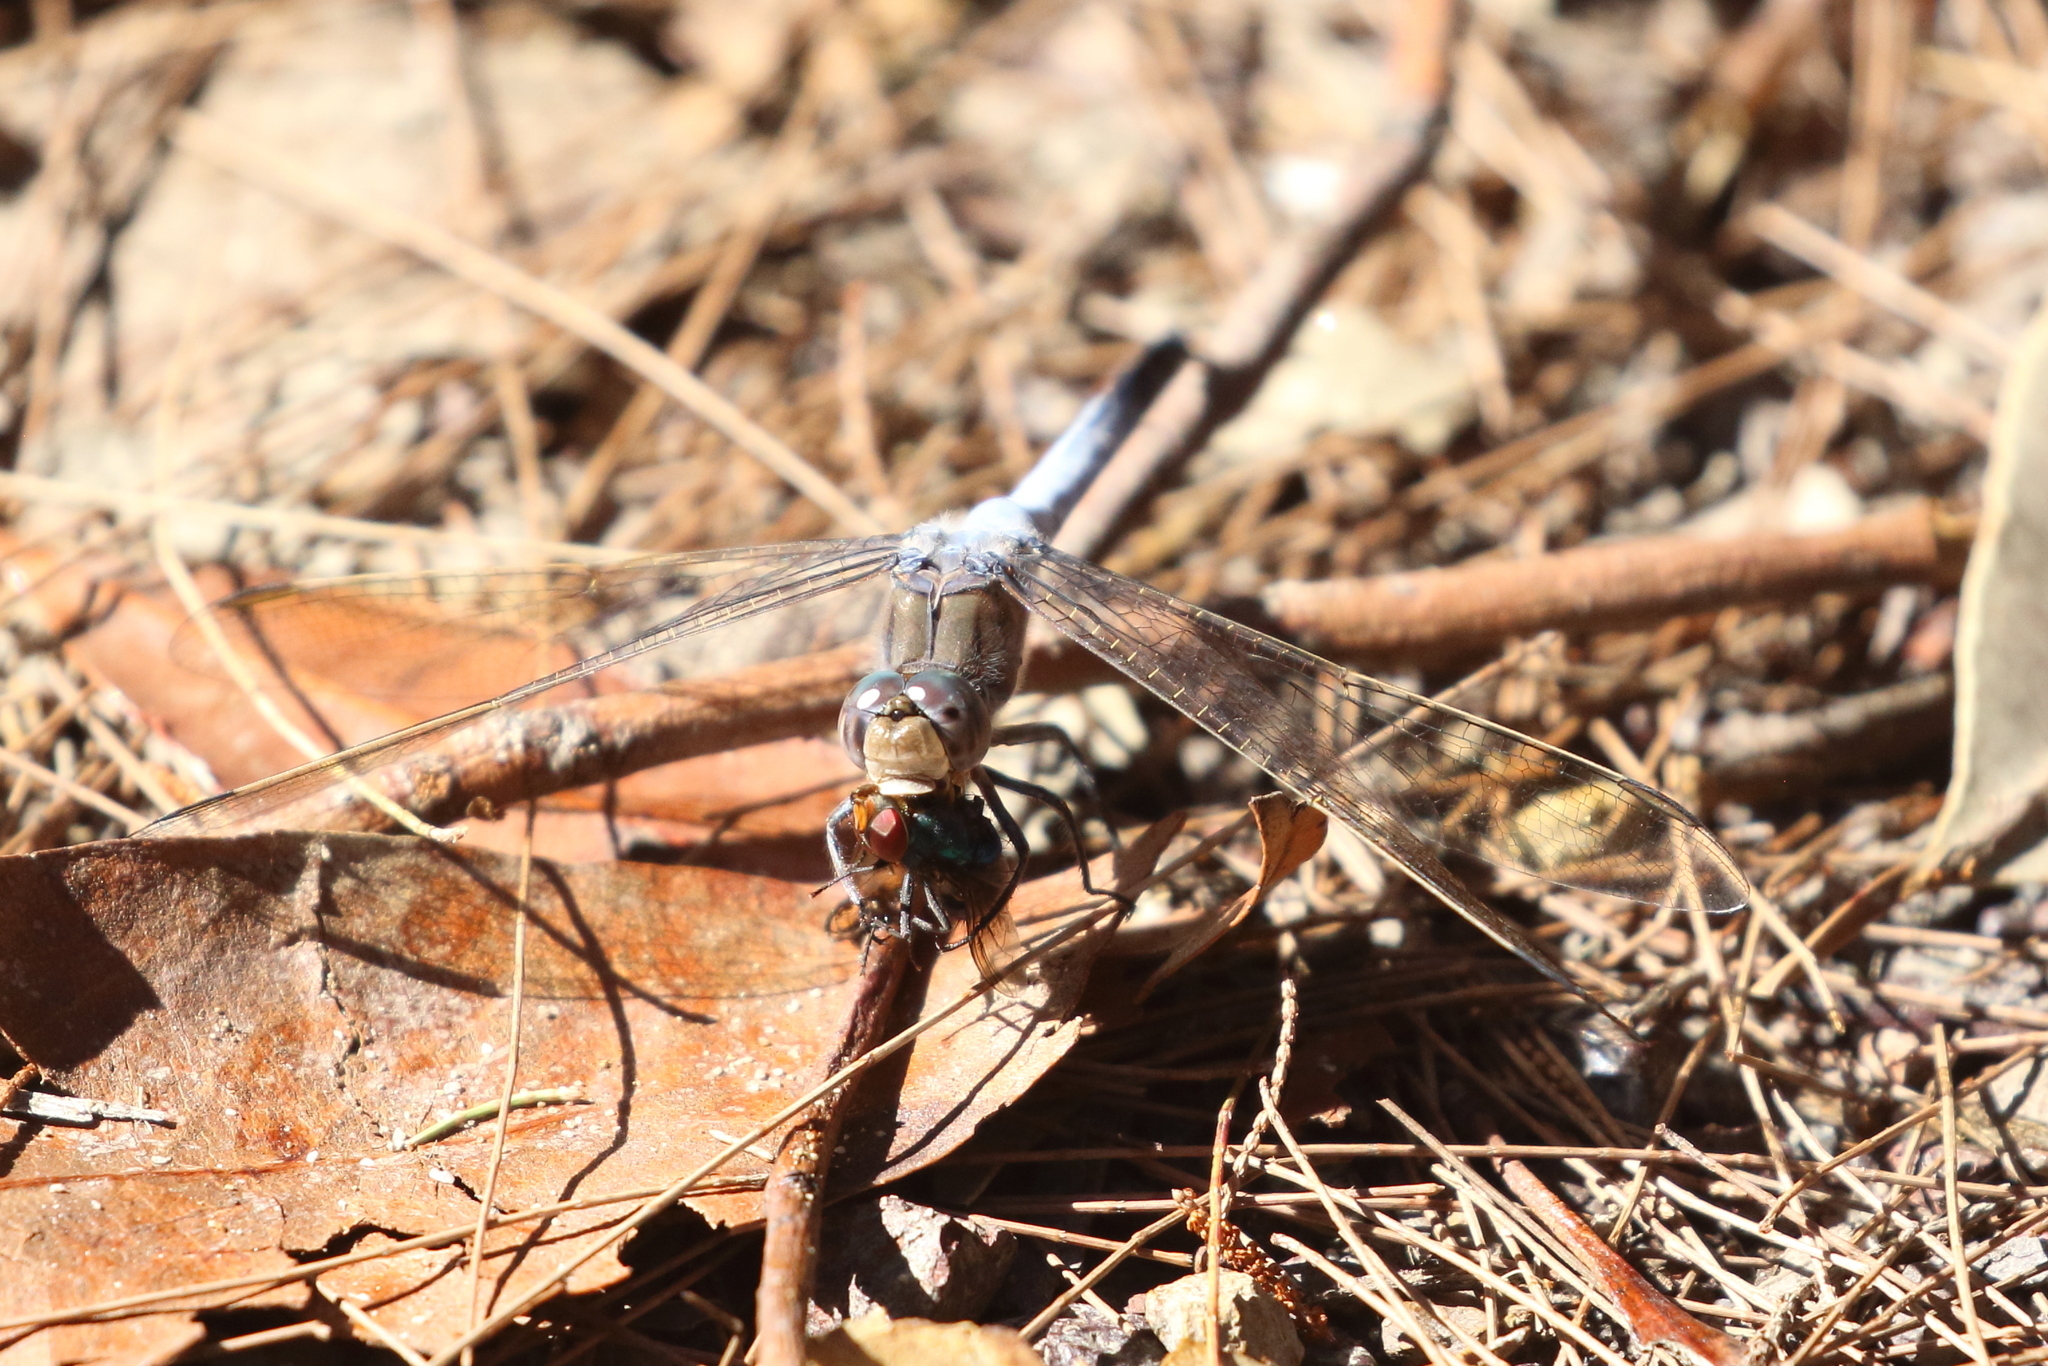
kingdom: Animalia
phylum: Arthropoda
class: Insecta
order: Odonata
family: Libellulidae
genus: Orthetrum
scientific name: Orthetrum caledonicum
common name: Blue skimmer
